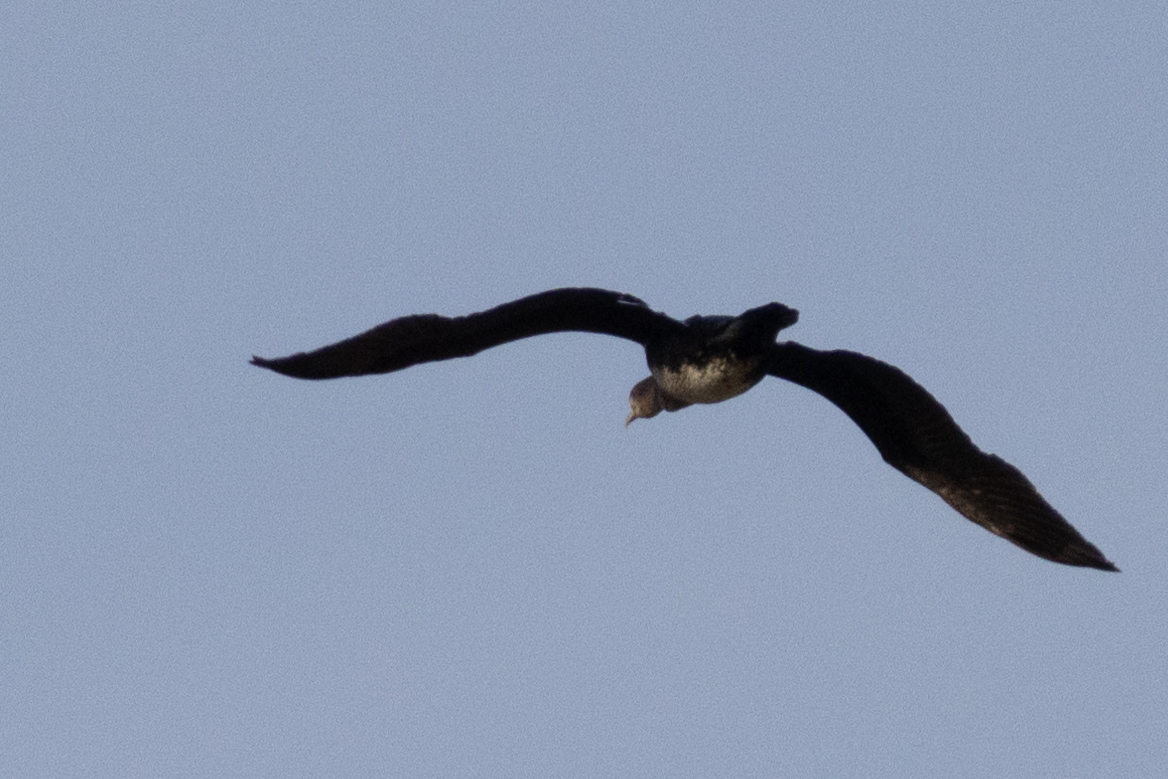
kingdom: Animalia
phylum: Chordata
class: Aves
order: Suliformes
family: Phalacrocoracidae
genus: Phalacrocorax
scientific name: Phalacrocorax carbo
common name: Great cormorant
